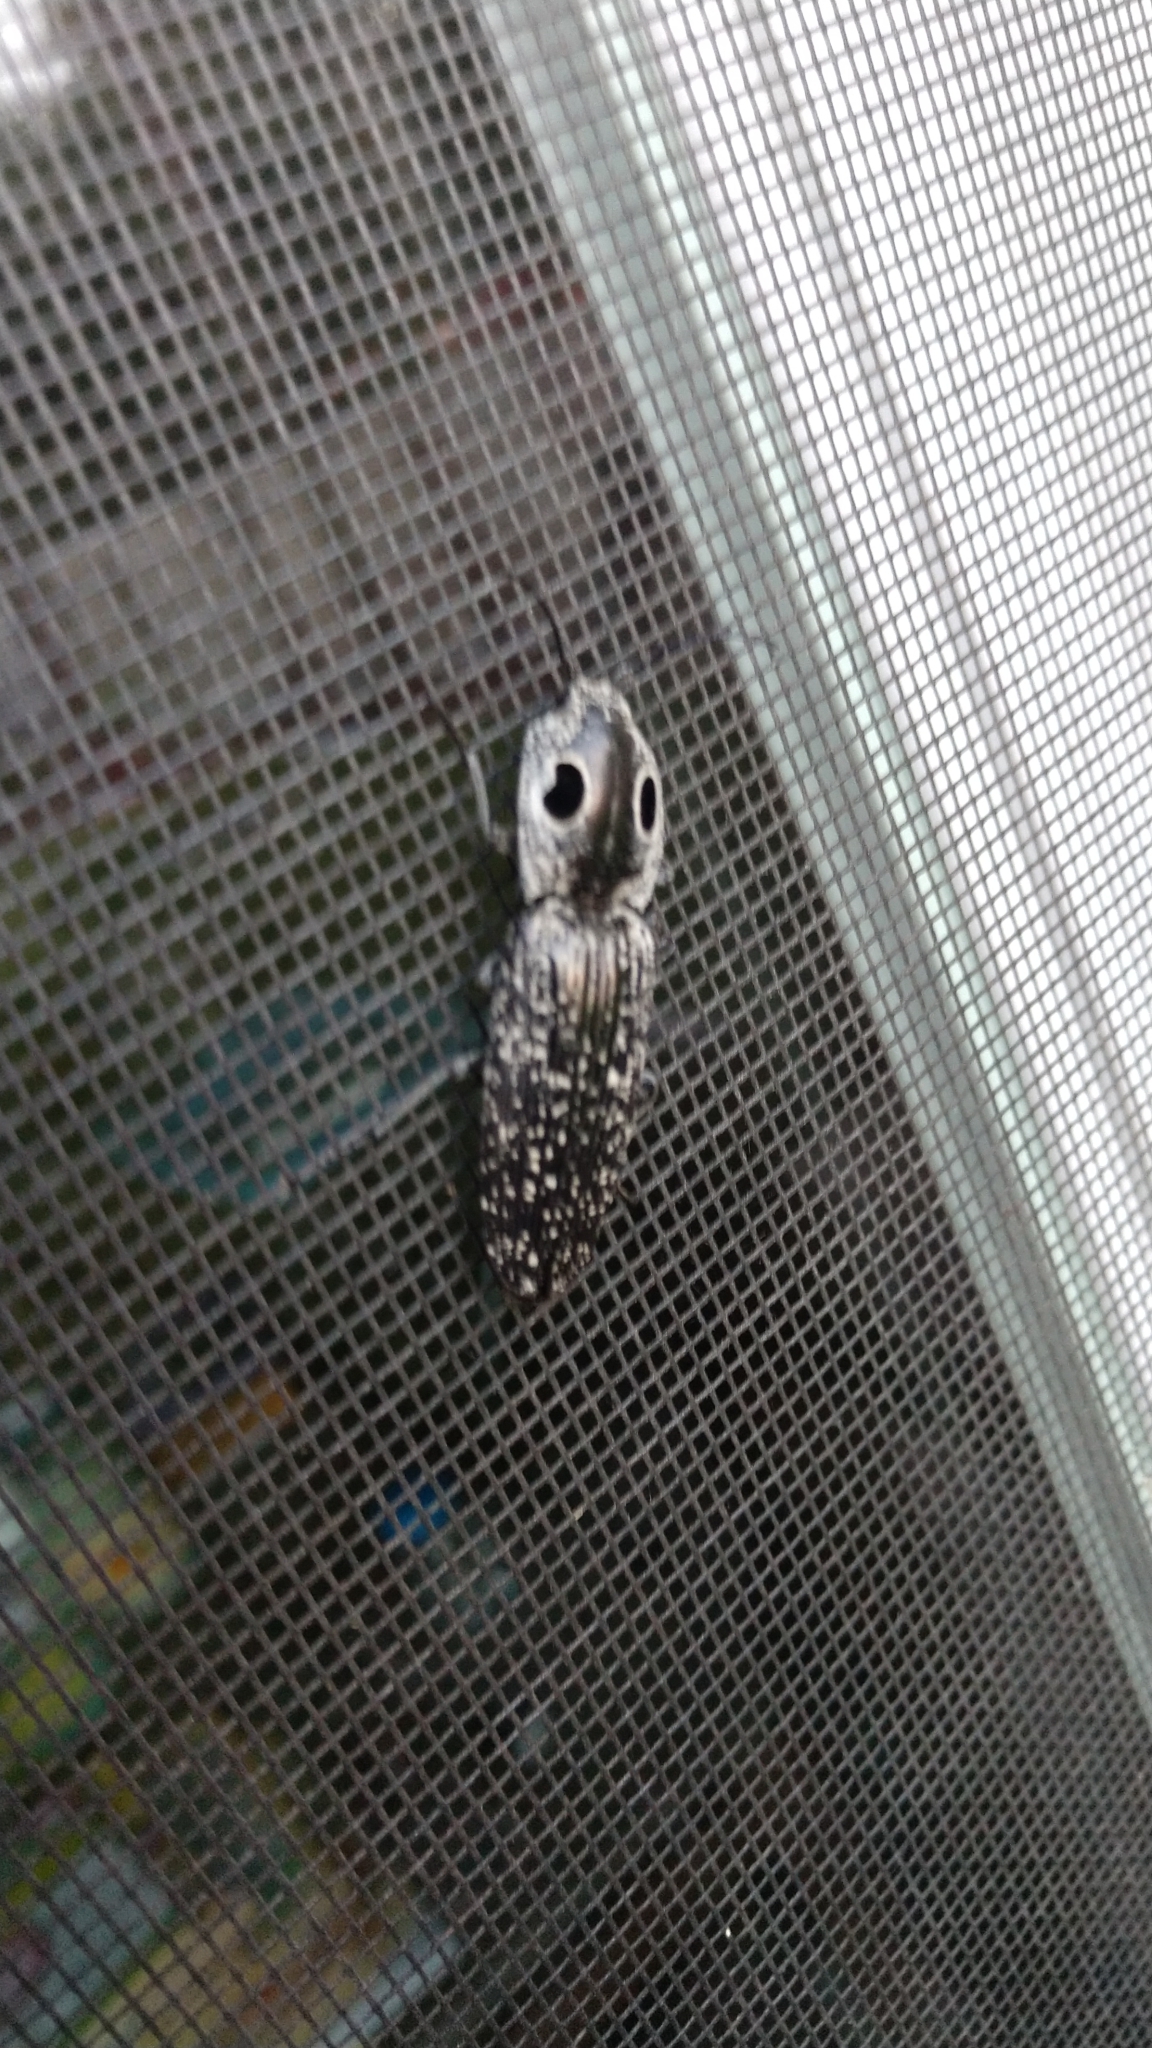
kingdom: Animalia
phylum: Arthropoda
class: Insecta
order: Coleoptera
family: Elateridae
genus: Alaus
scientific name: Alaus oculatus
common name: Eastern eyed click beetle
